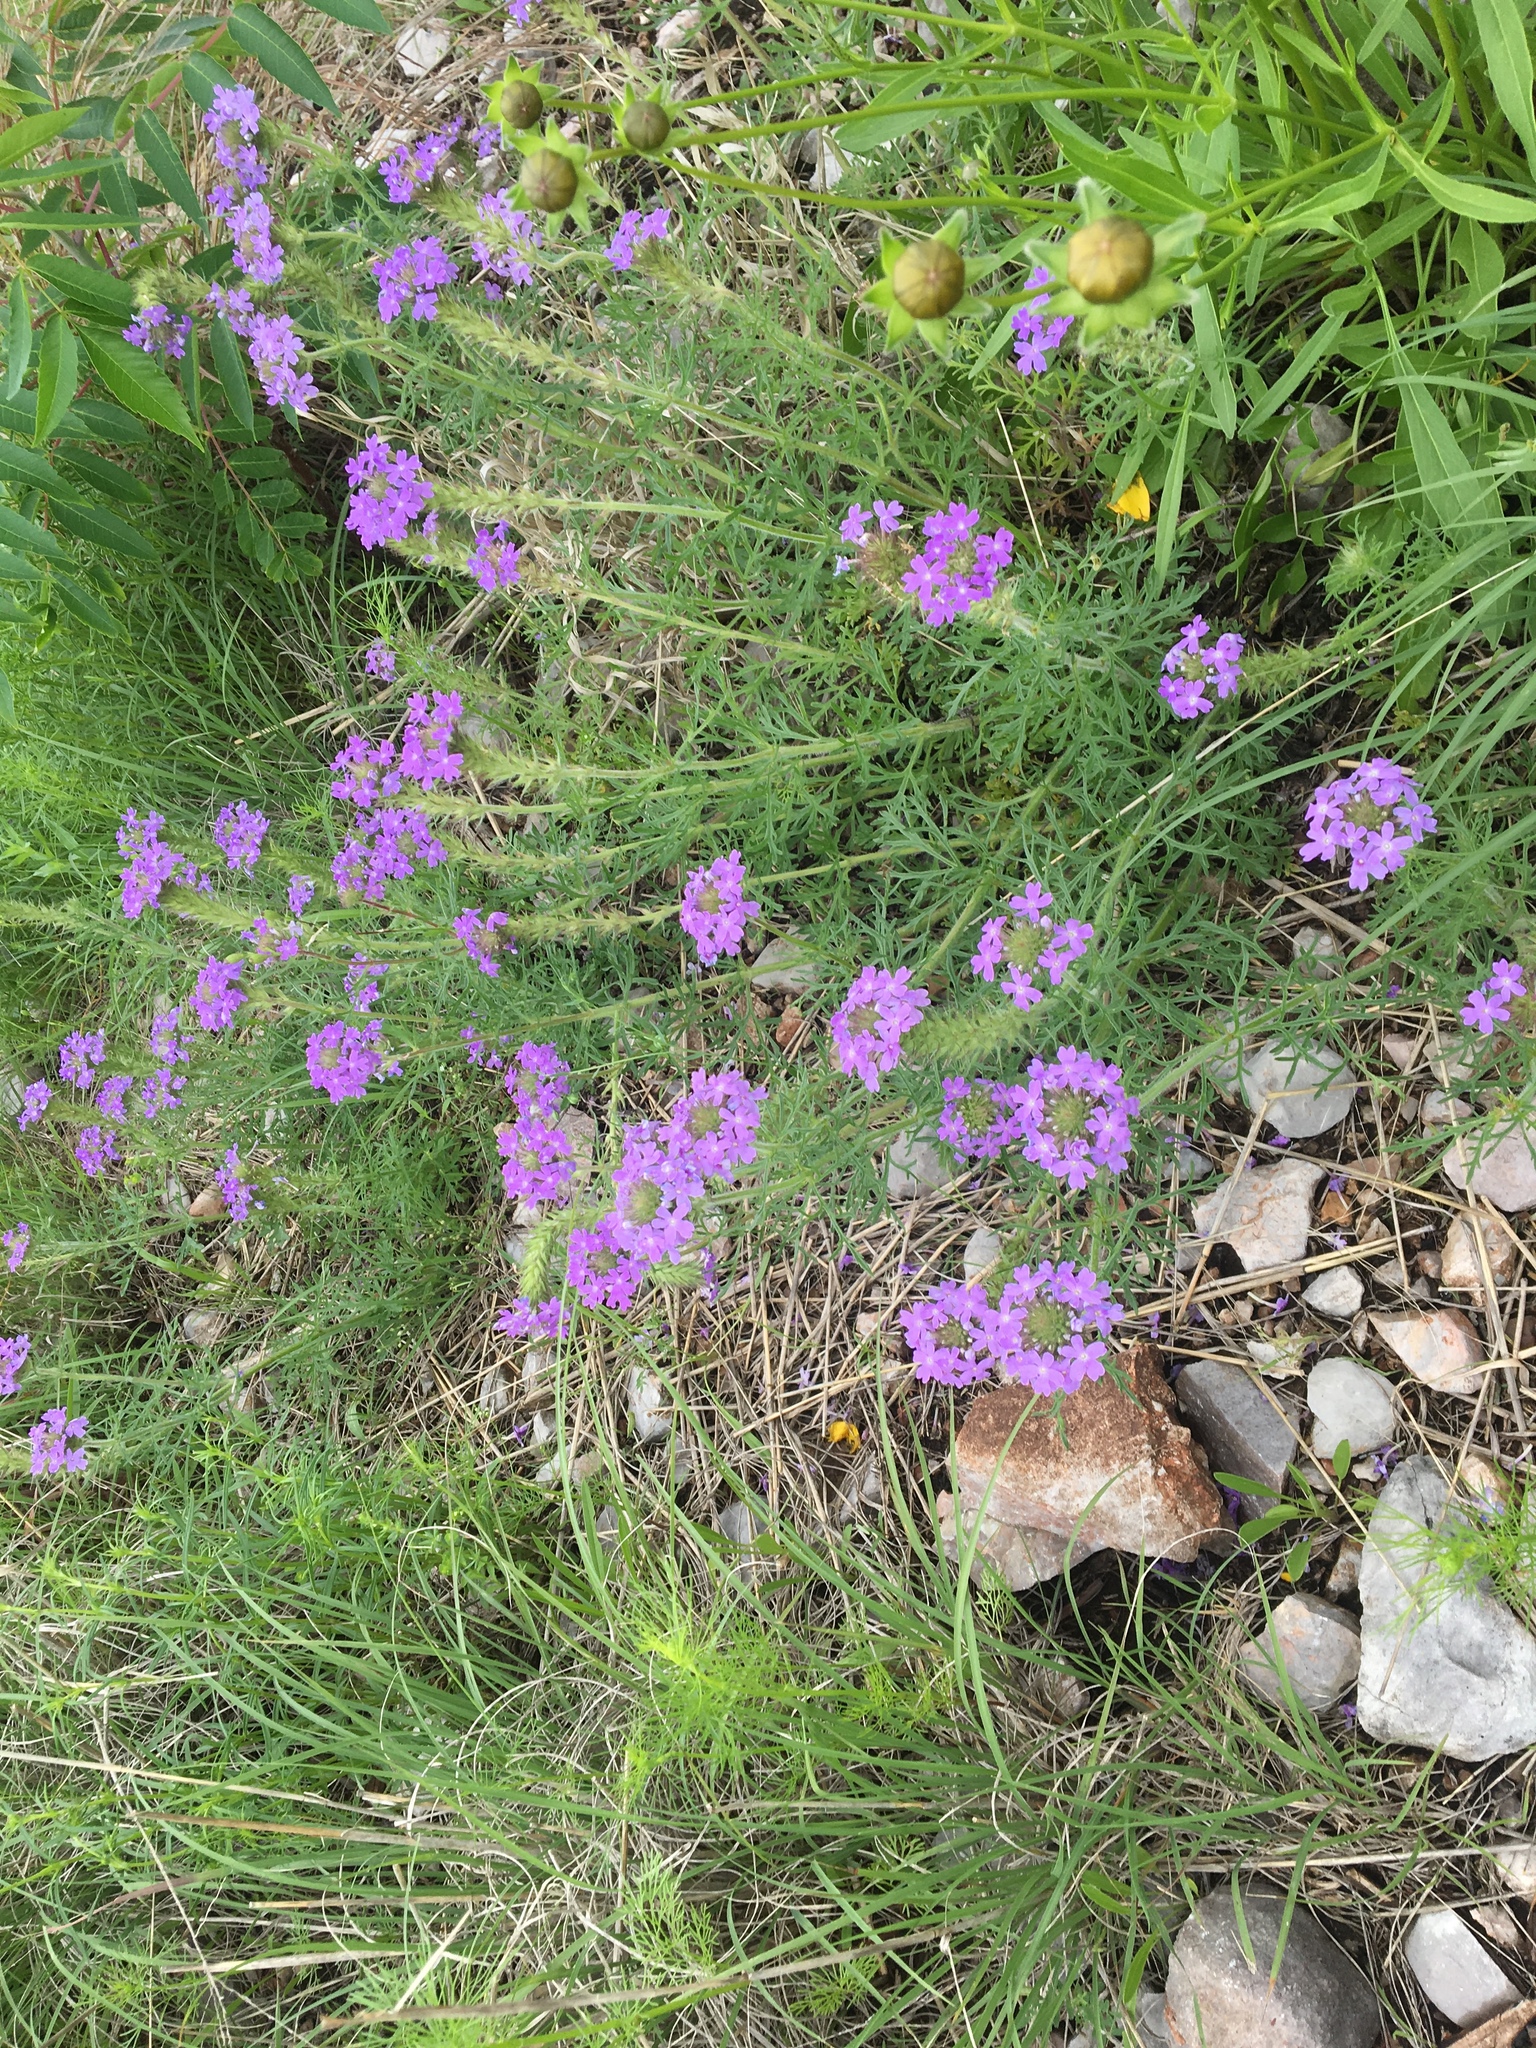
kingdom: Plantae
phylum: Tracheophyta
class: Magnoliopsida
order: Lamiales
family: Verbenaceae
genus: Verbena
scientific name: Verbena bipinnatifida
